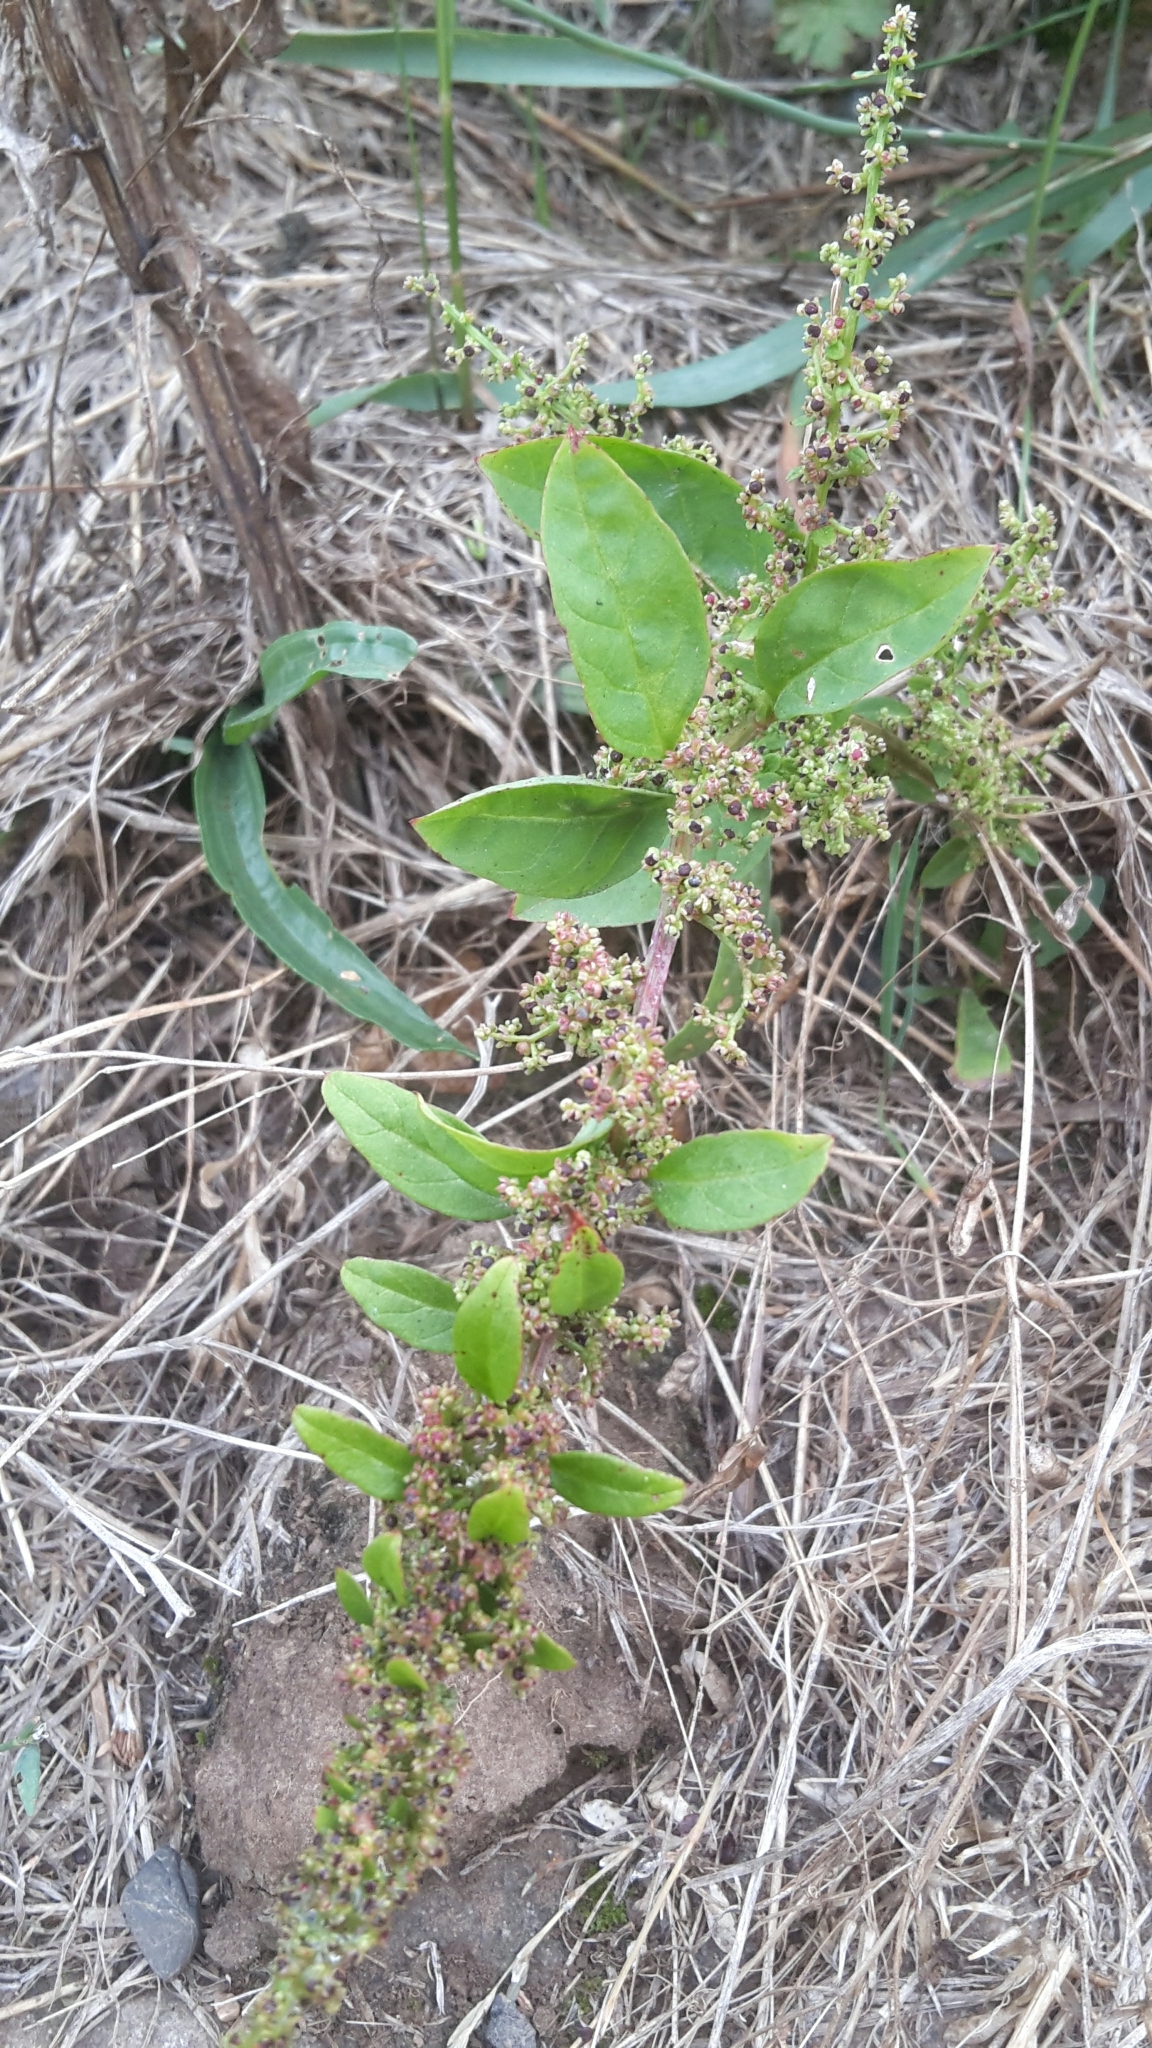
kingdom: Plantae
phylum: Tracheophyta
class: Magnoliopsida
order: Caryophyllales
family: Amaranthaceae
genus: Lipandra
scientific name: Lipandra polysperma
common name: Many-seed goosefoot
